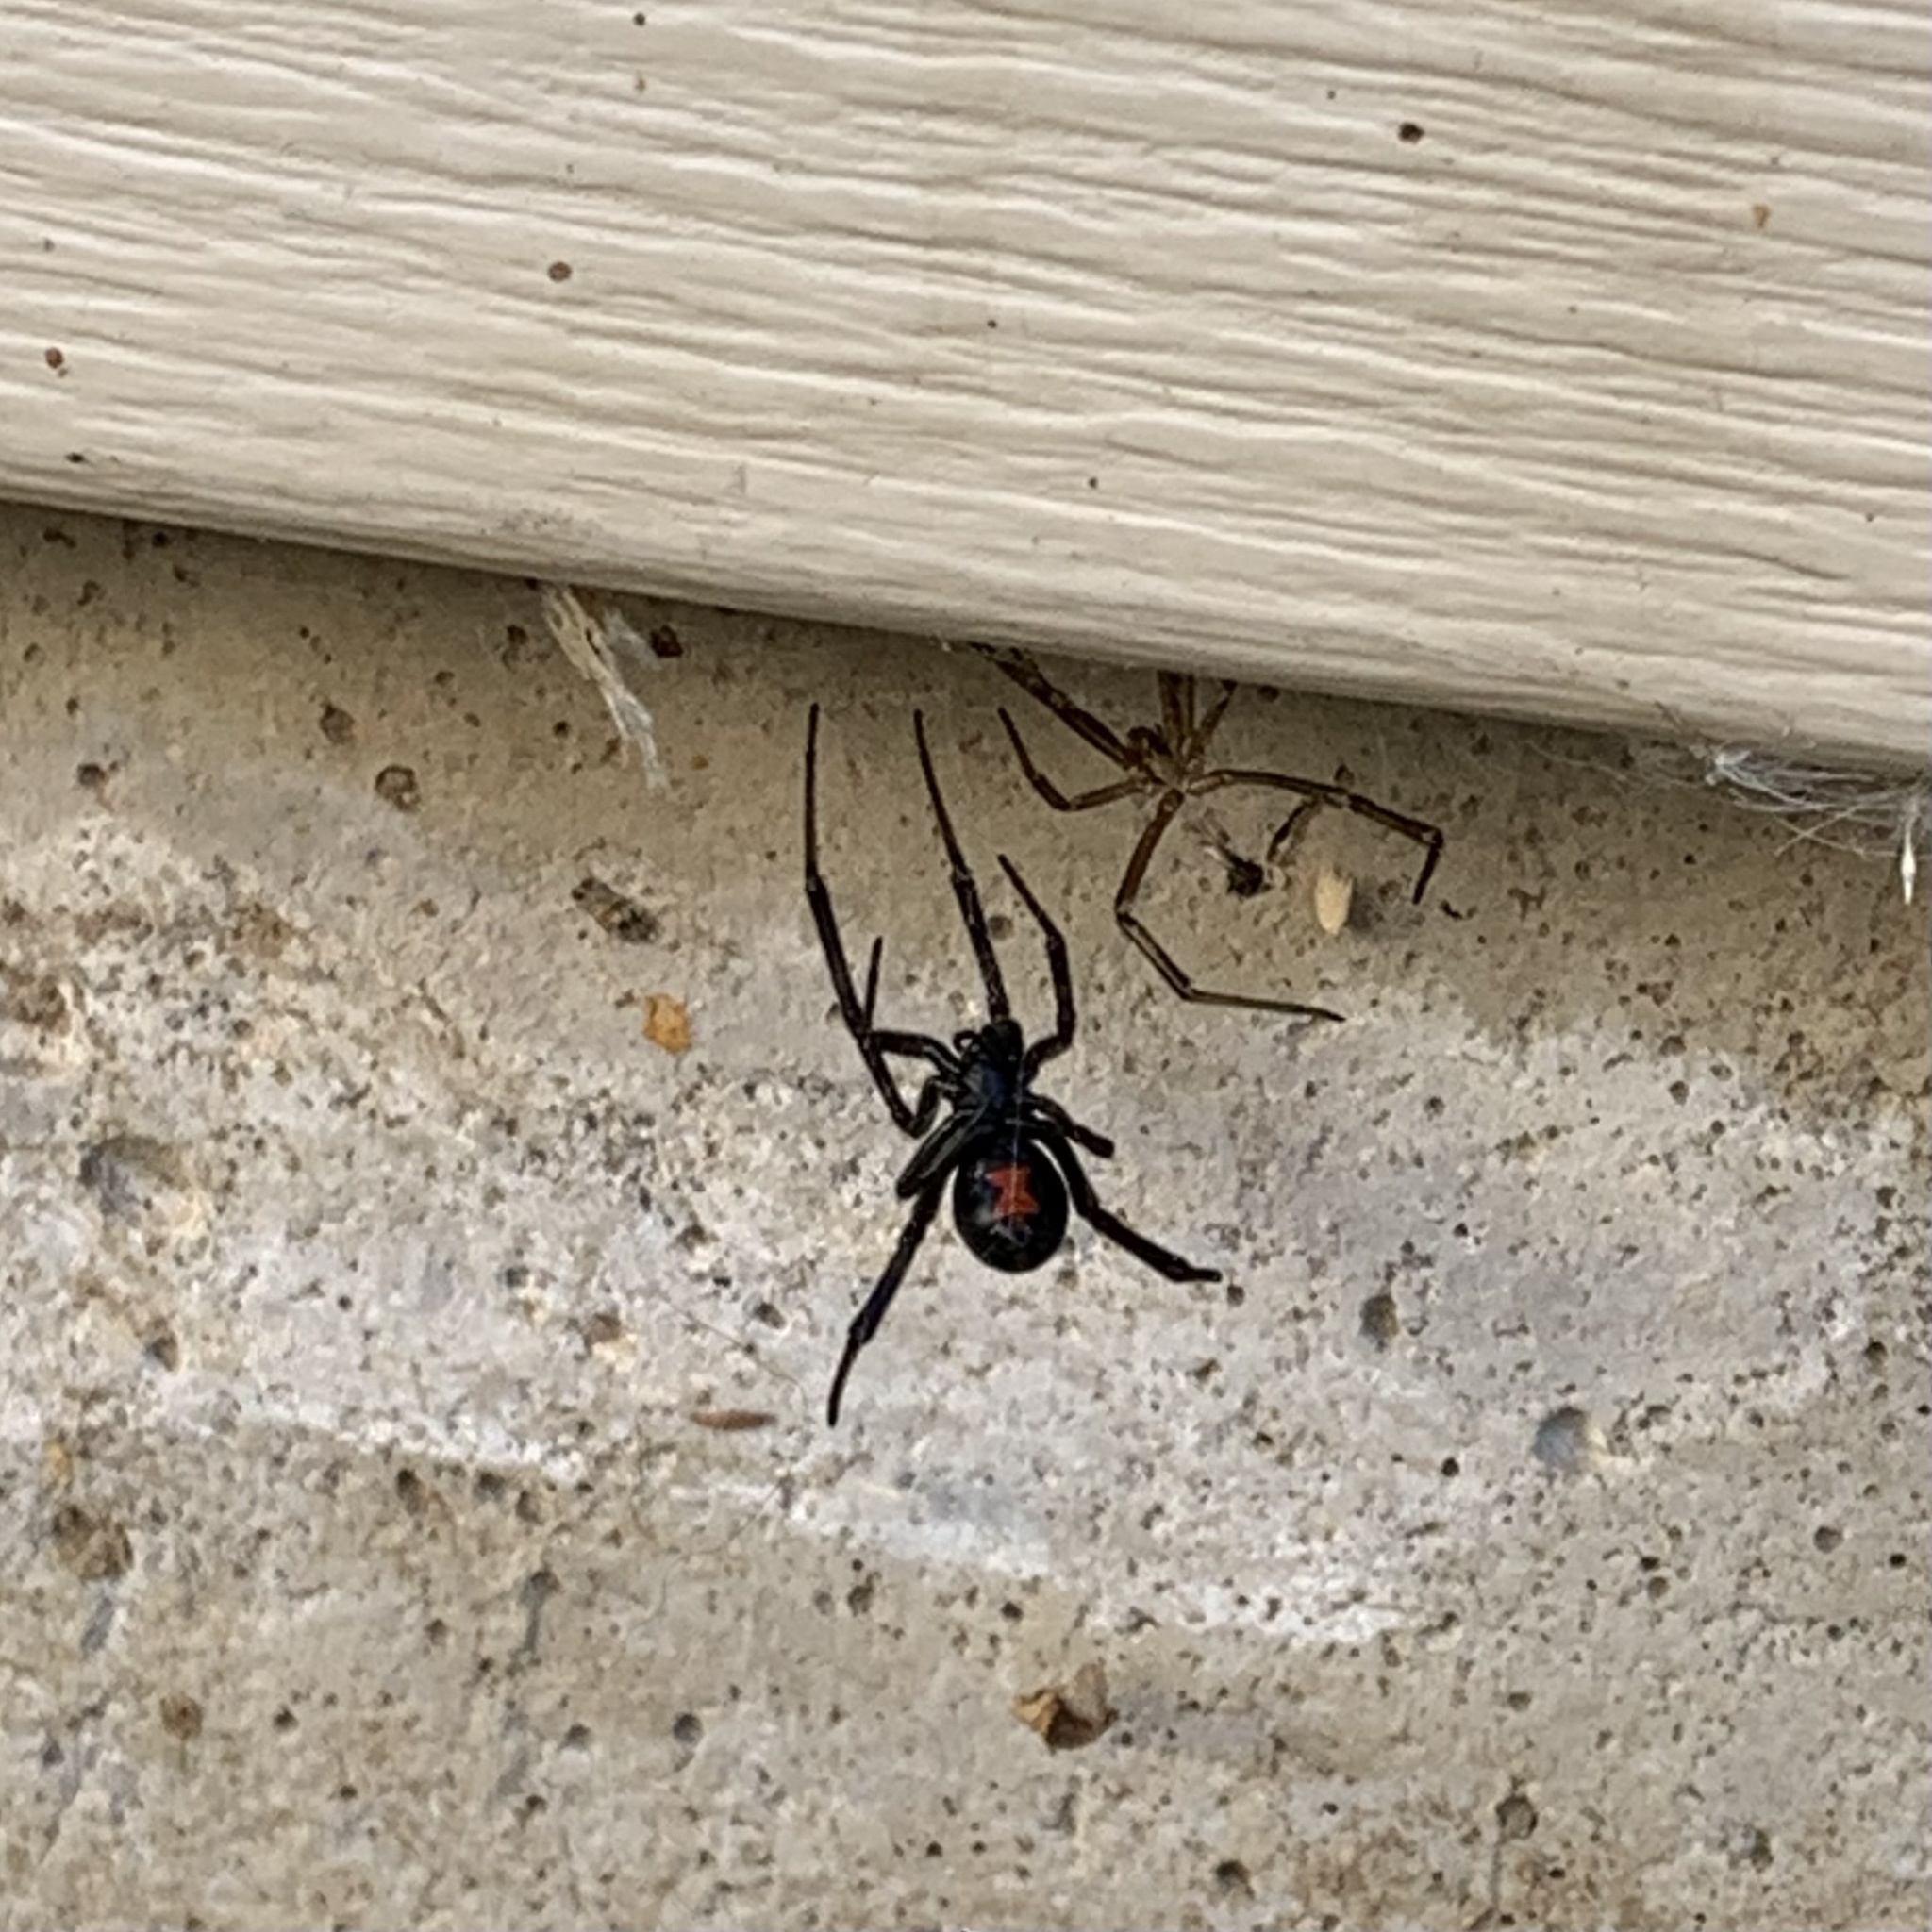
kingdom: Animalia
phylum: Arthropoda
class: Arachnida
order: Araneae
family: Theridiidae
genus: Latrodectus
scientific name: Latrodectus hesperus
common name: Western black widow
